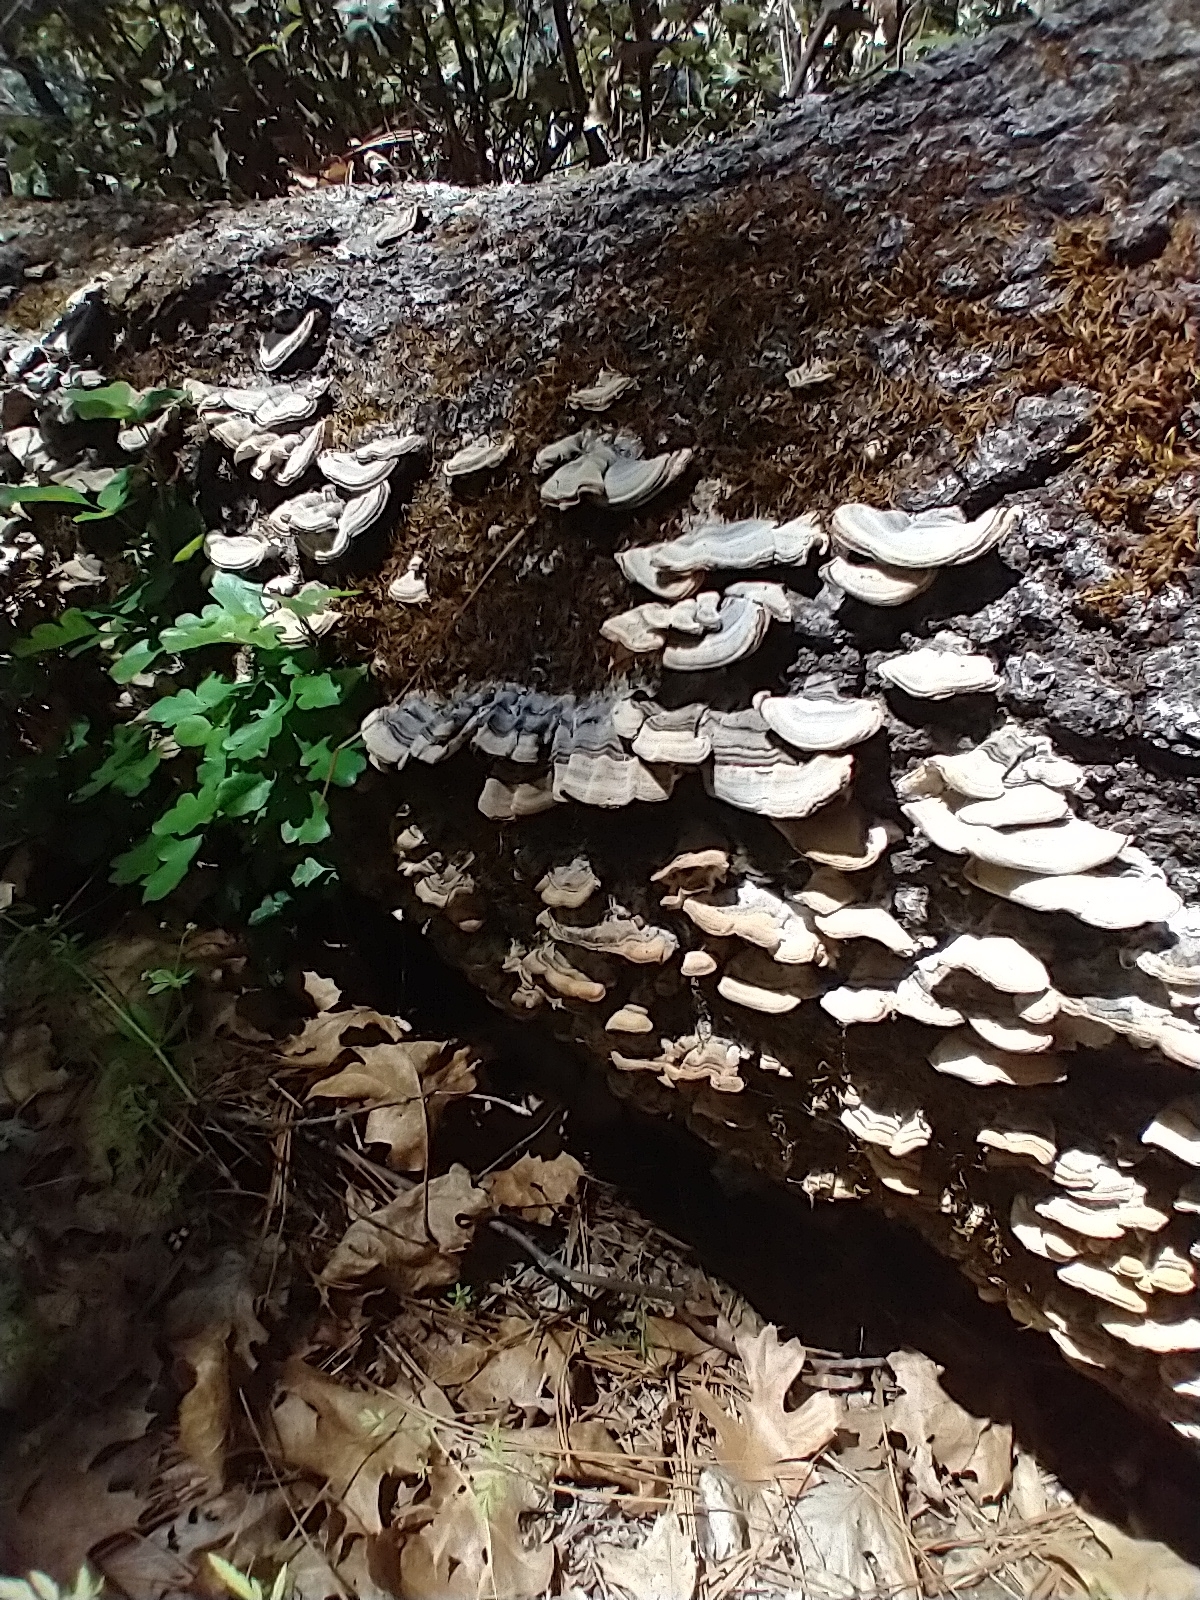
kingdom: Fungi
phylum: Basidiomycota
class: Agaricomycetes
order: Polyporales
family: Polyporaceae
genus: Trametes
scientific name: Trametes versicolor
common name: Turkeytail
